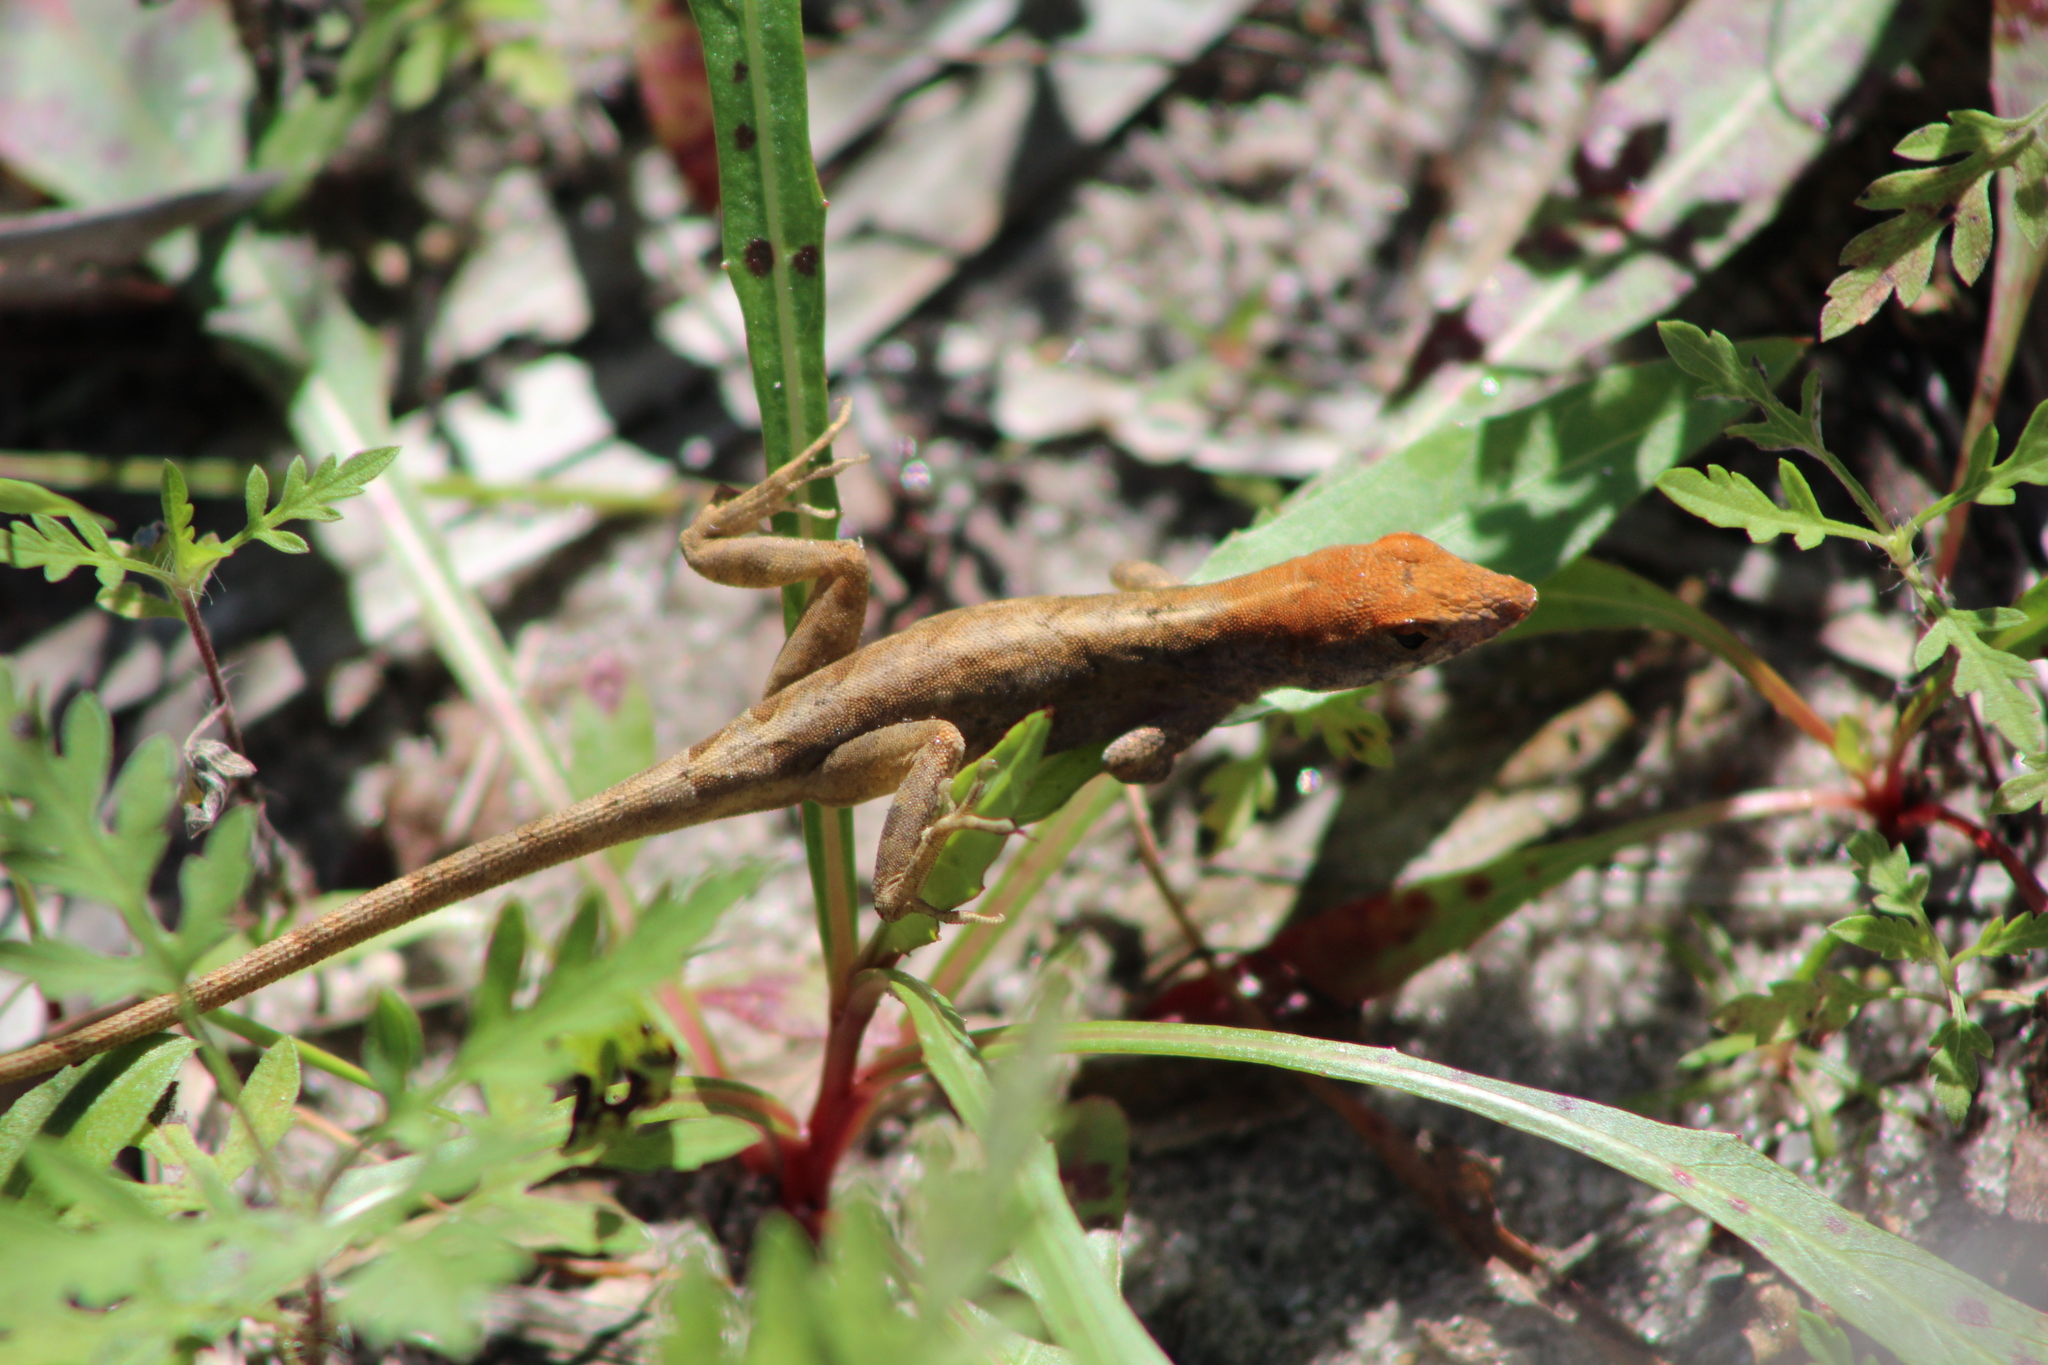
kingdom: Animalia
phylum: Chordata
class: Squamata
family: Dactyloidae
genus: Anolis
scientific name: Anolis sagrei
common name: Brown anole
